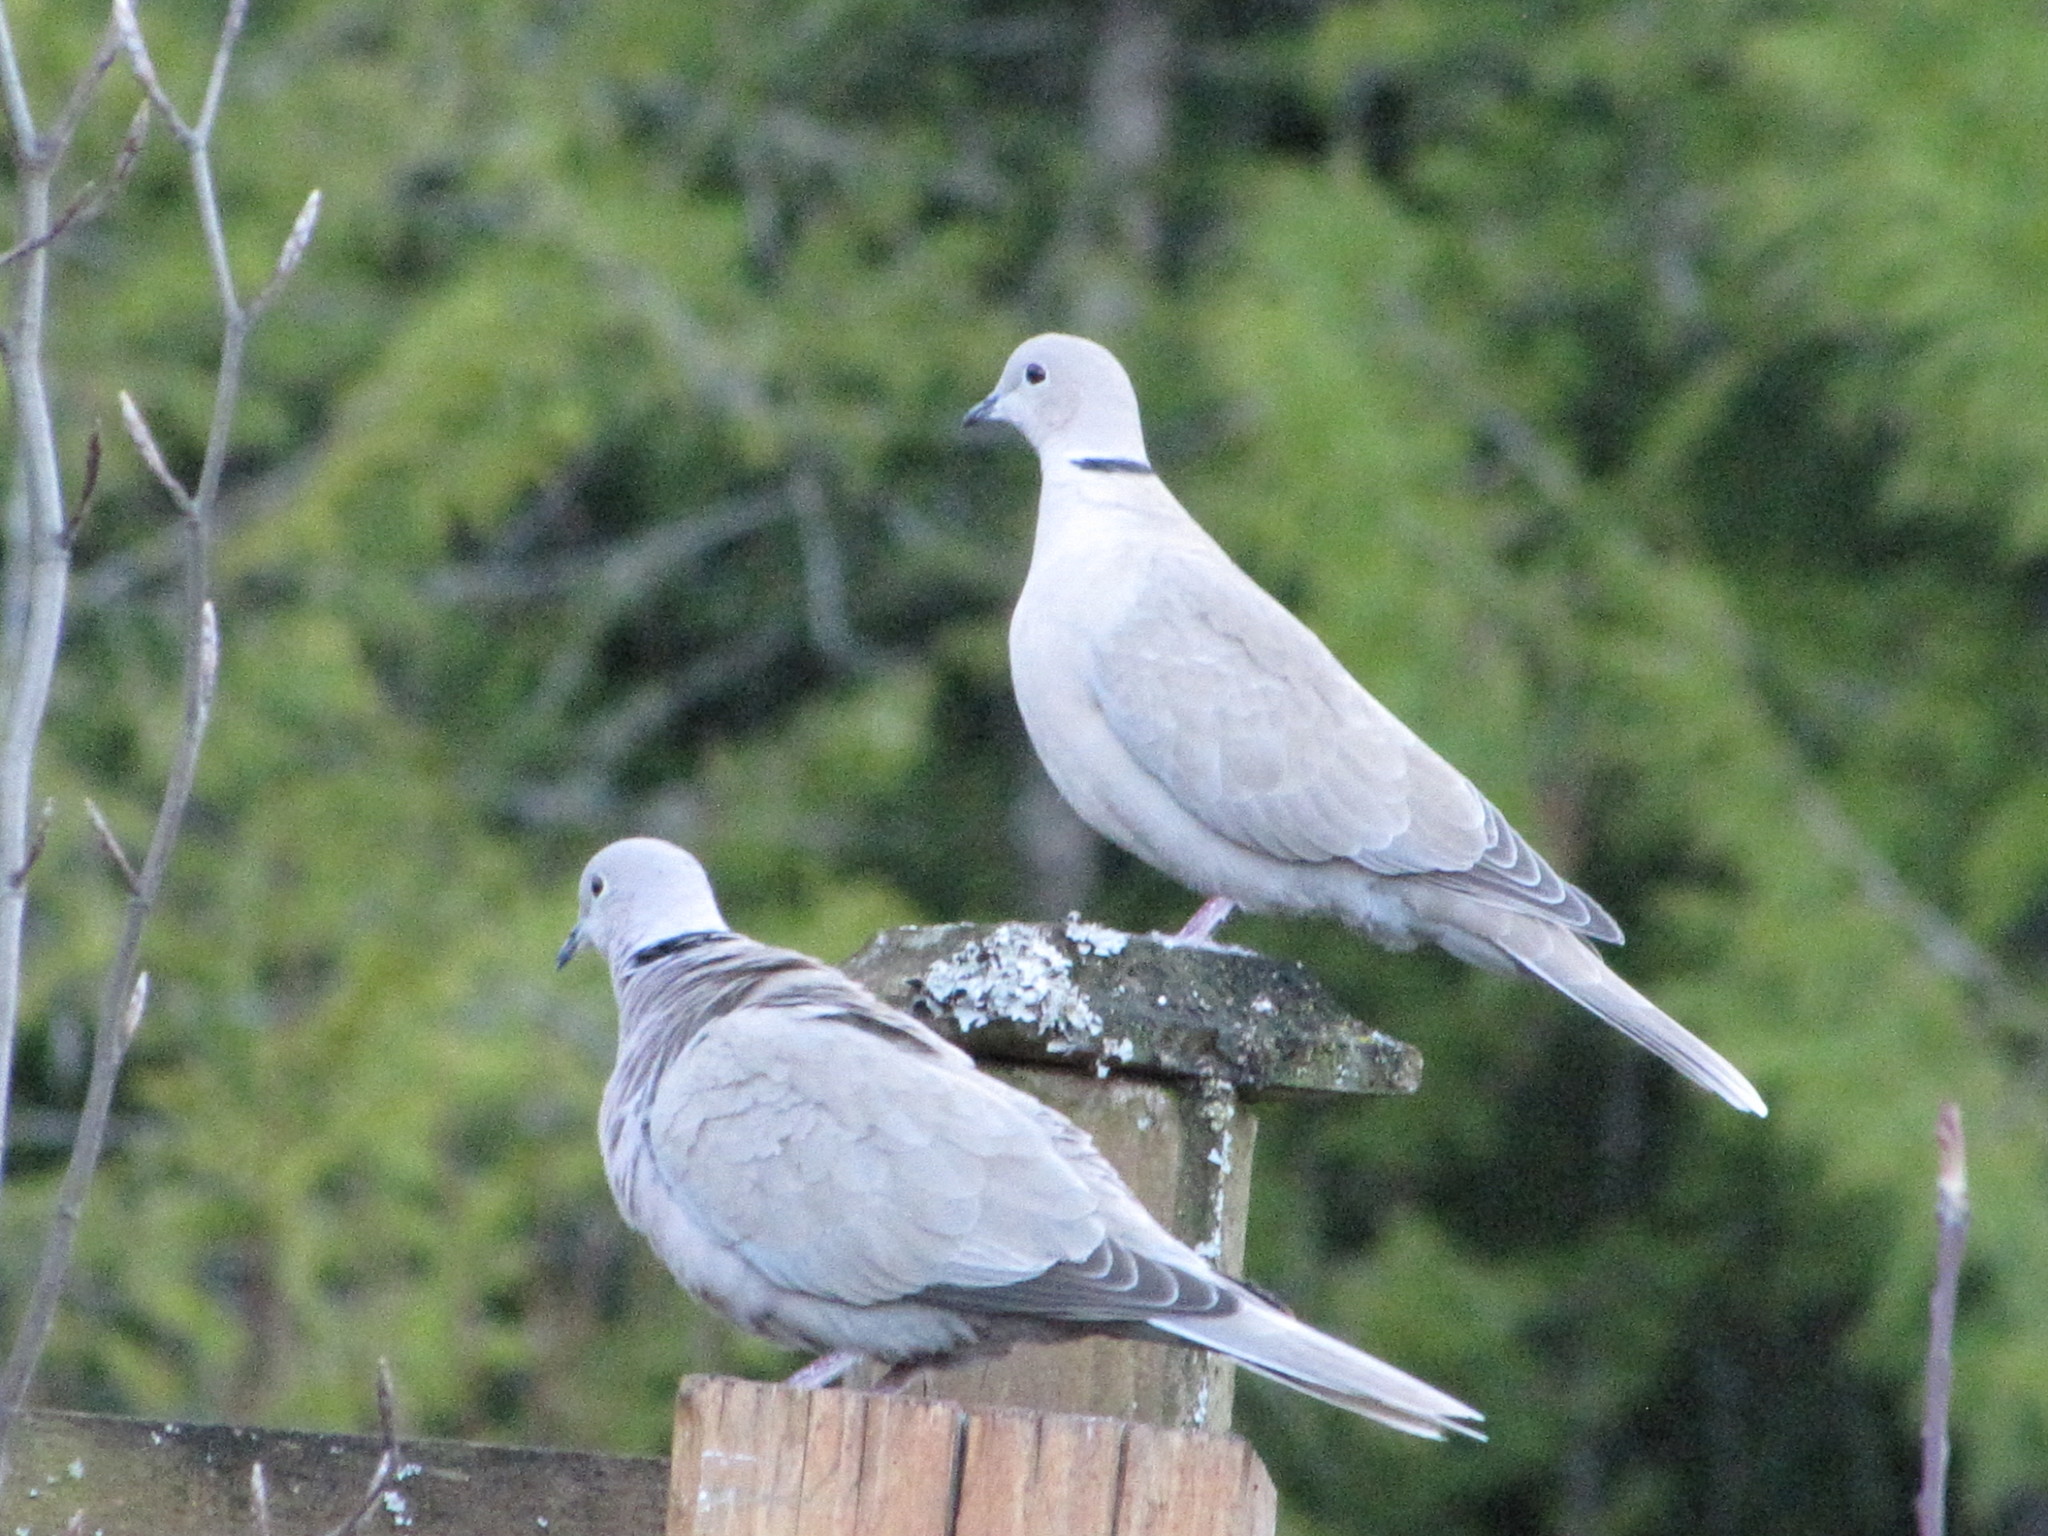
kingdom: Animalia
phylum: Chordata
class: Aves
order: Columbiformes
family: Columbidae
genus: Streptopelia
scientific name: Streptopelia decaocto
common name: Eurasian collared dove
